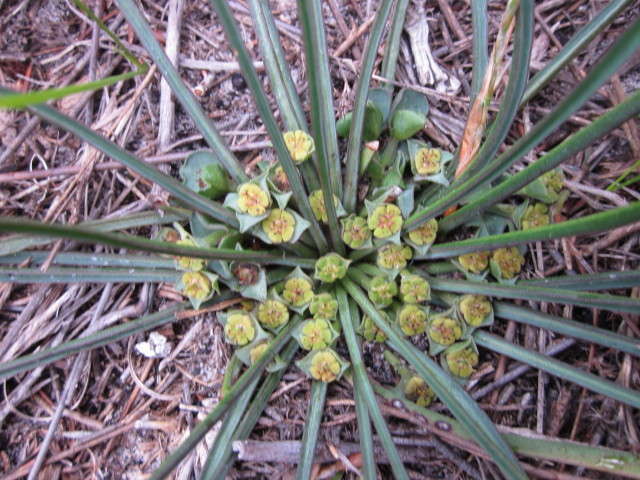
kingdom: Plantae
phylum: Tracheophyta
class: Magnoliopsida
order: Malpighiales
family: Euphorbiaceae
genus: Euphorbia
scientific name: Euphorbia silenifolia
